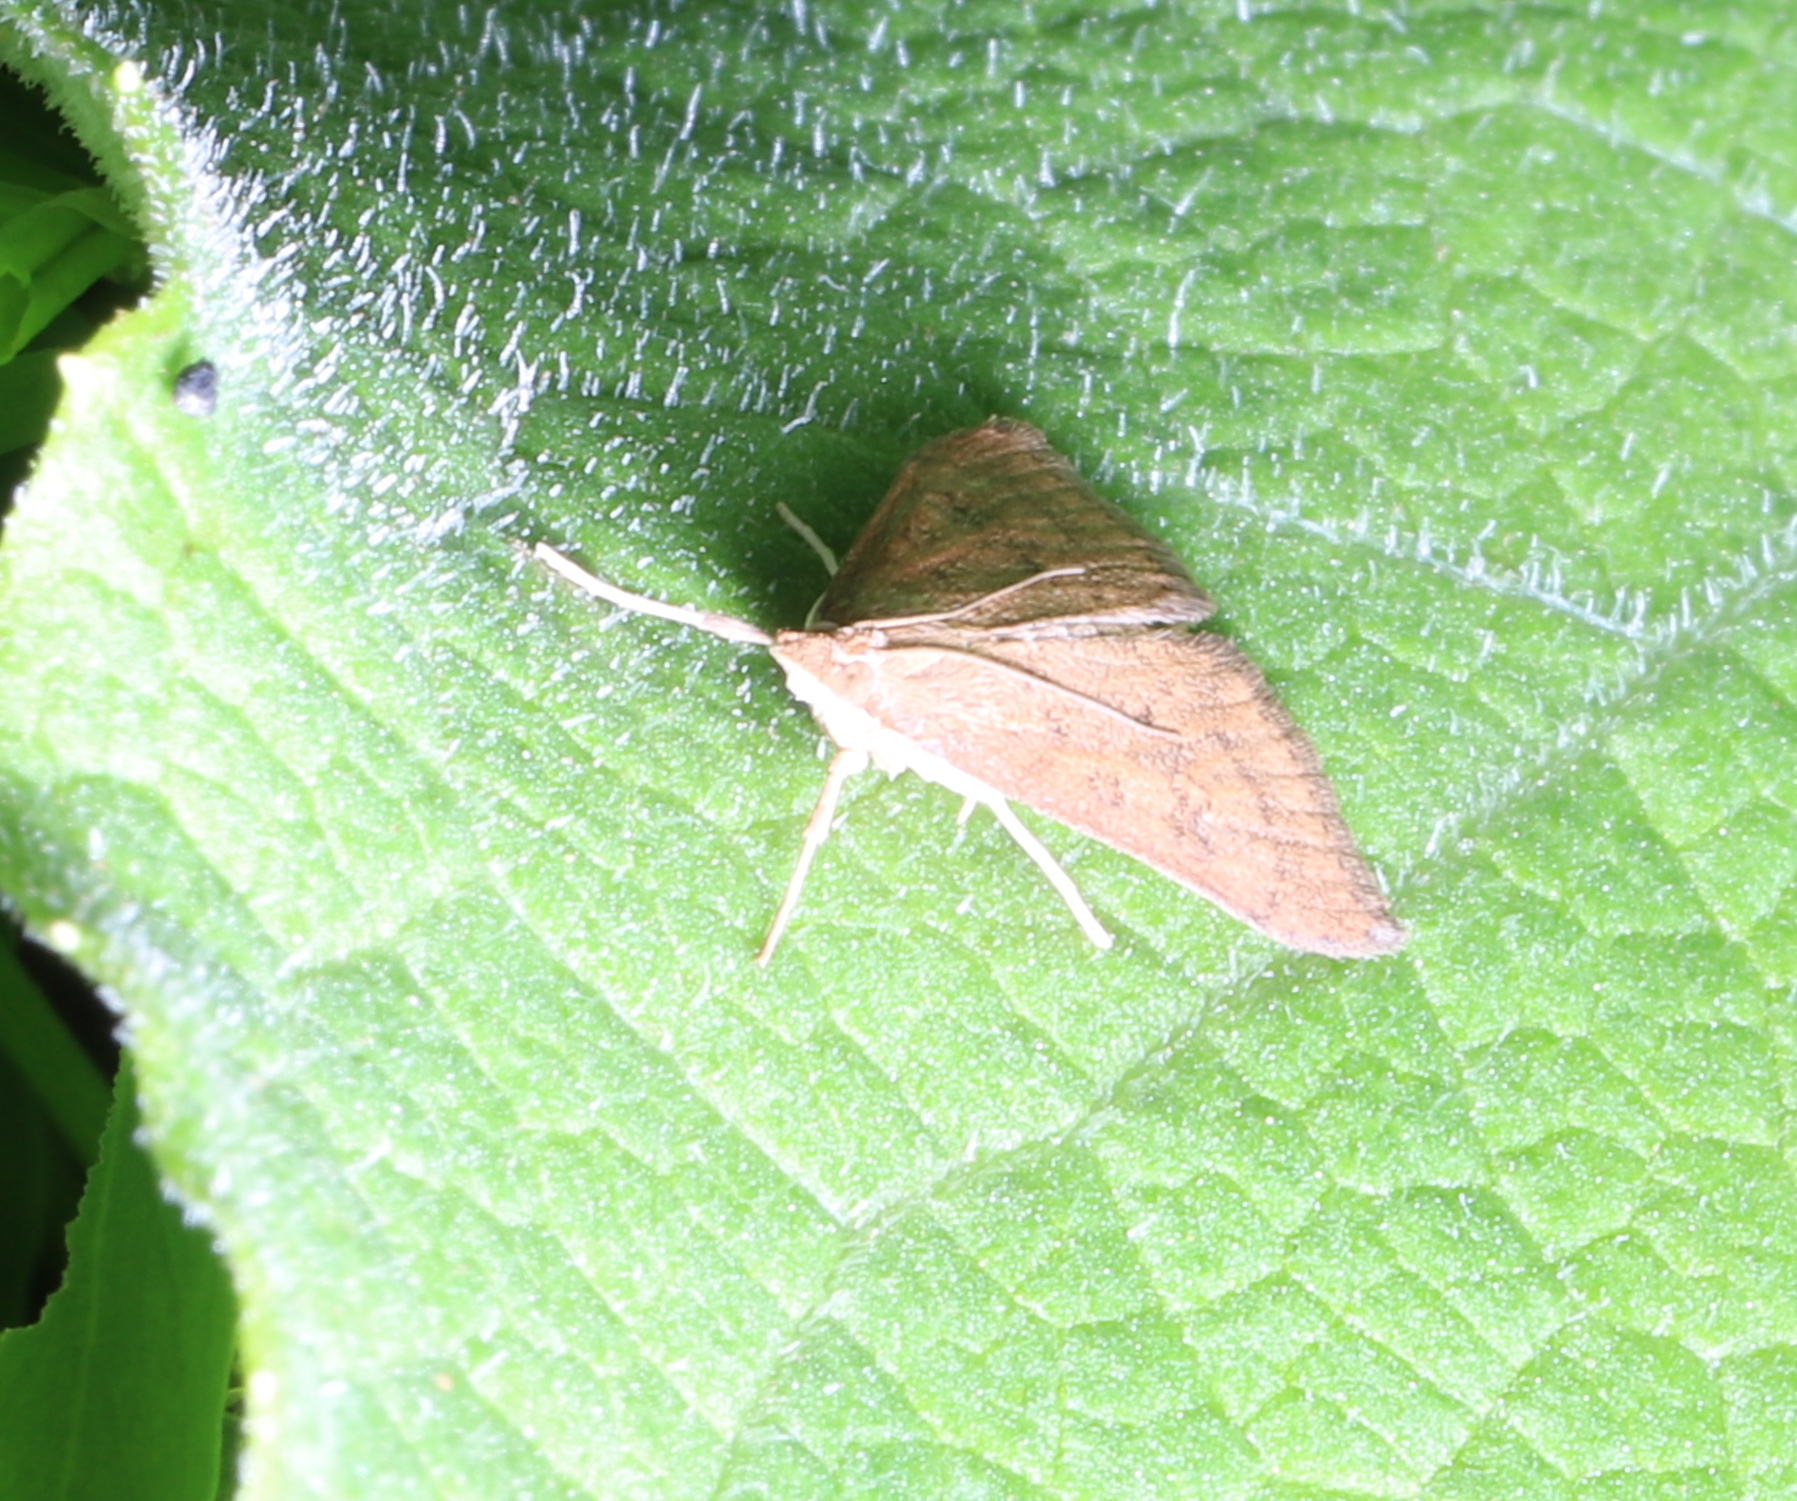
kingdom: Animalia
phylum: Arthropoda
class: Insecta
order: Lepidoptera
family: Crambidae
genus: Udea
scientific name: Udea rubigalis
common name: Celery leaftier moth
